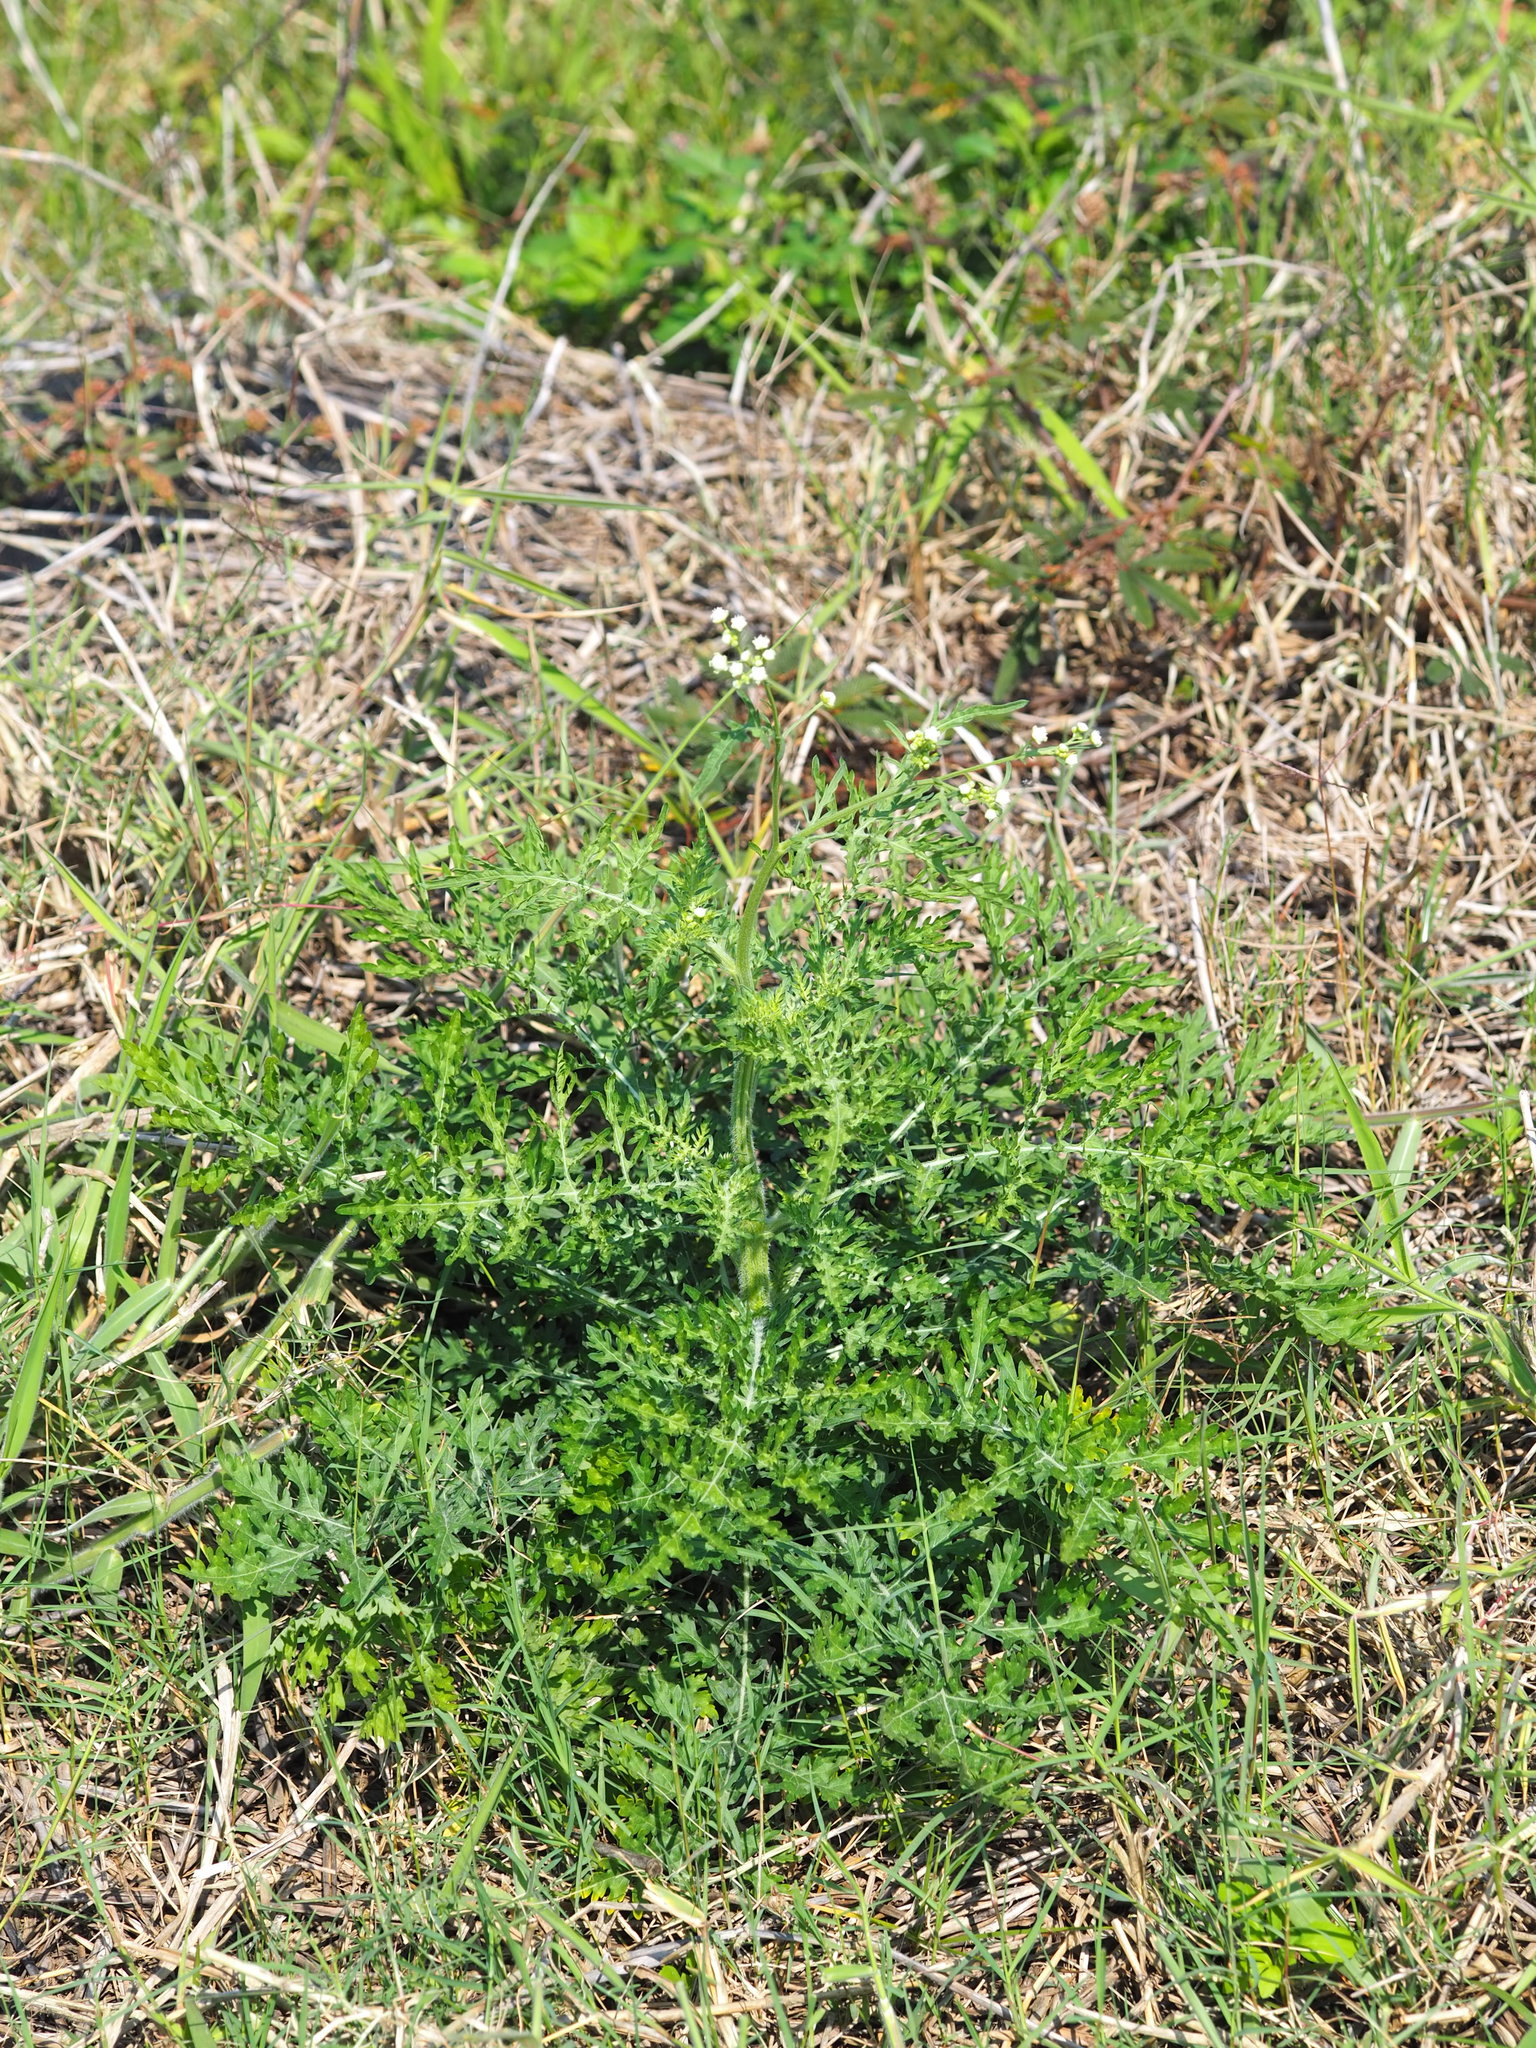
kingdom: Plantae
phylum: Tracheophyta
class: Magnoliopsida
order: Asterales
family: Asteraceae
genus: Parthenium
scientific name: Parthenium hysterophorus
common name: Santa maria feverfew
